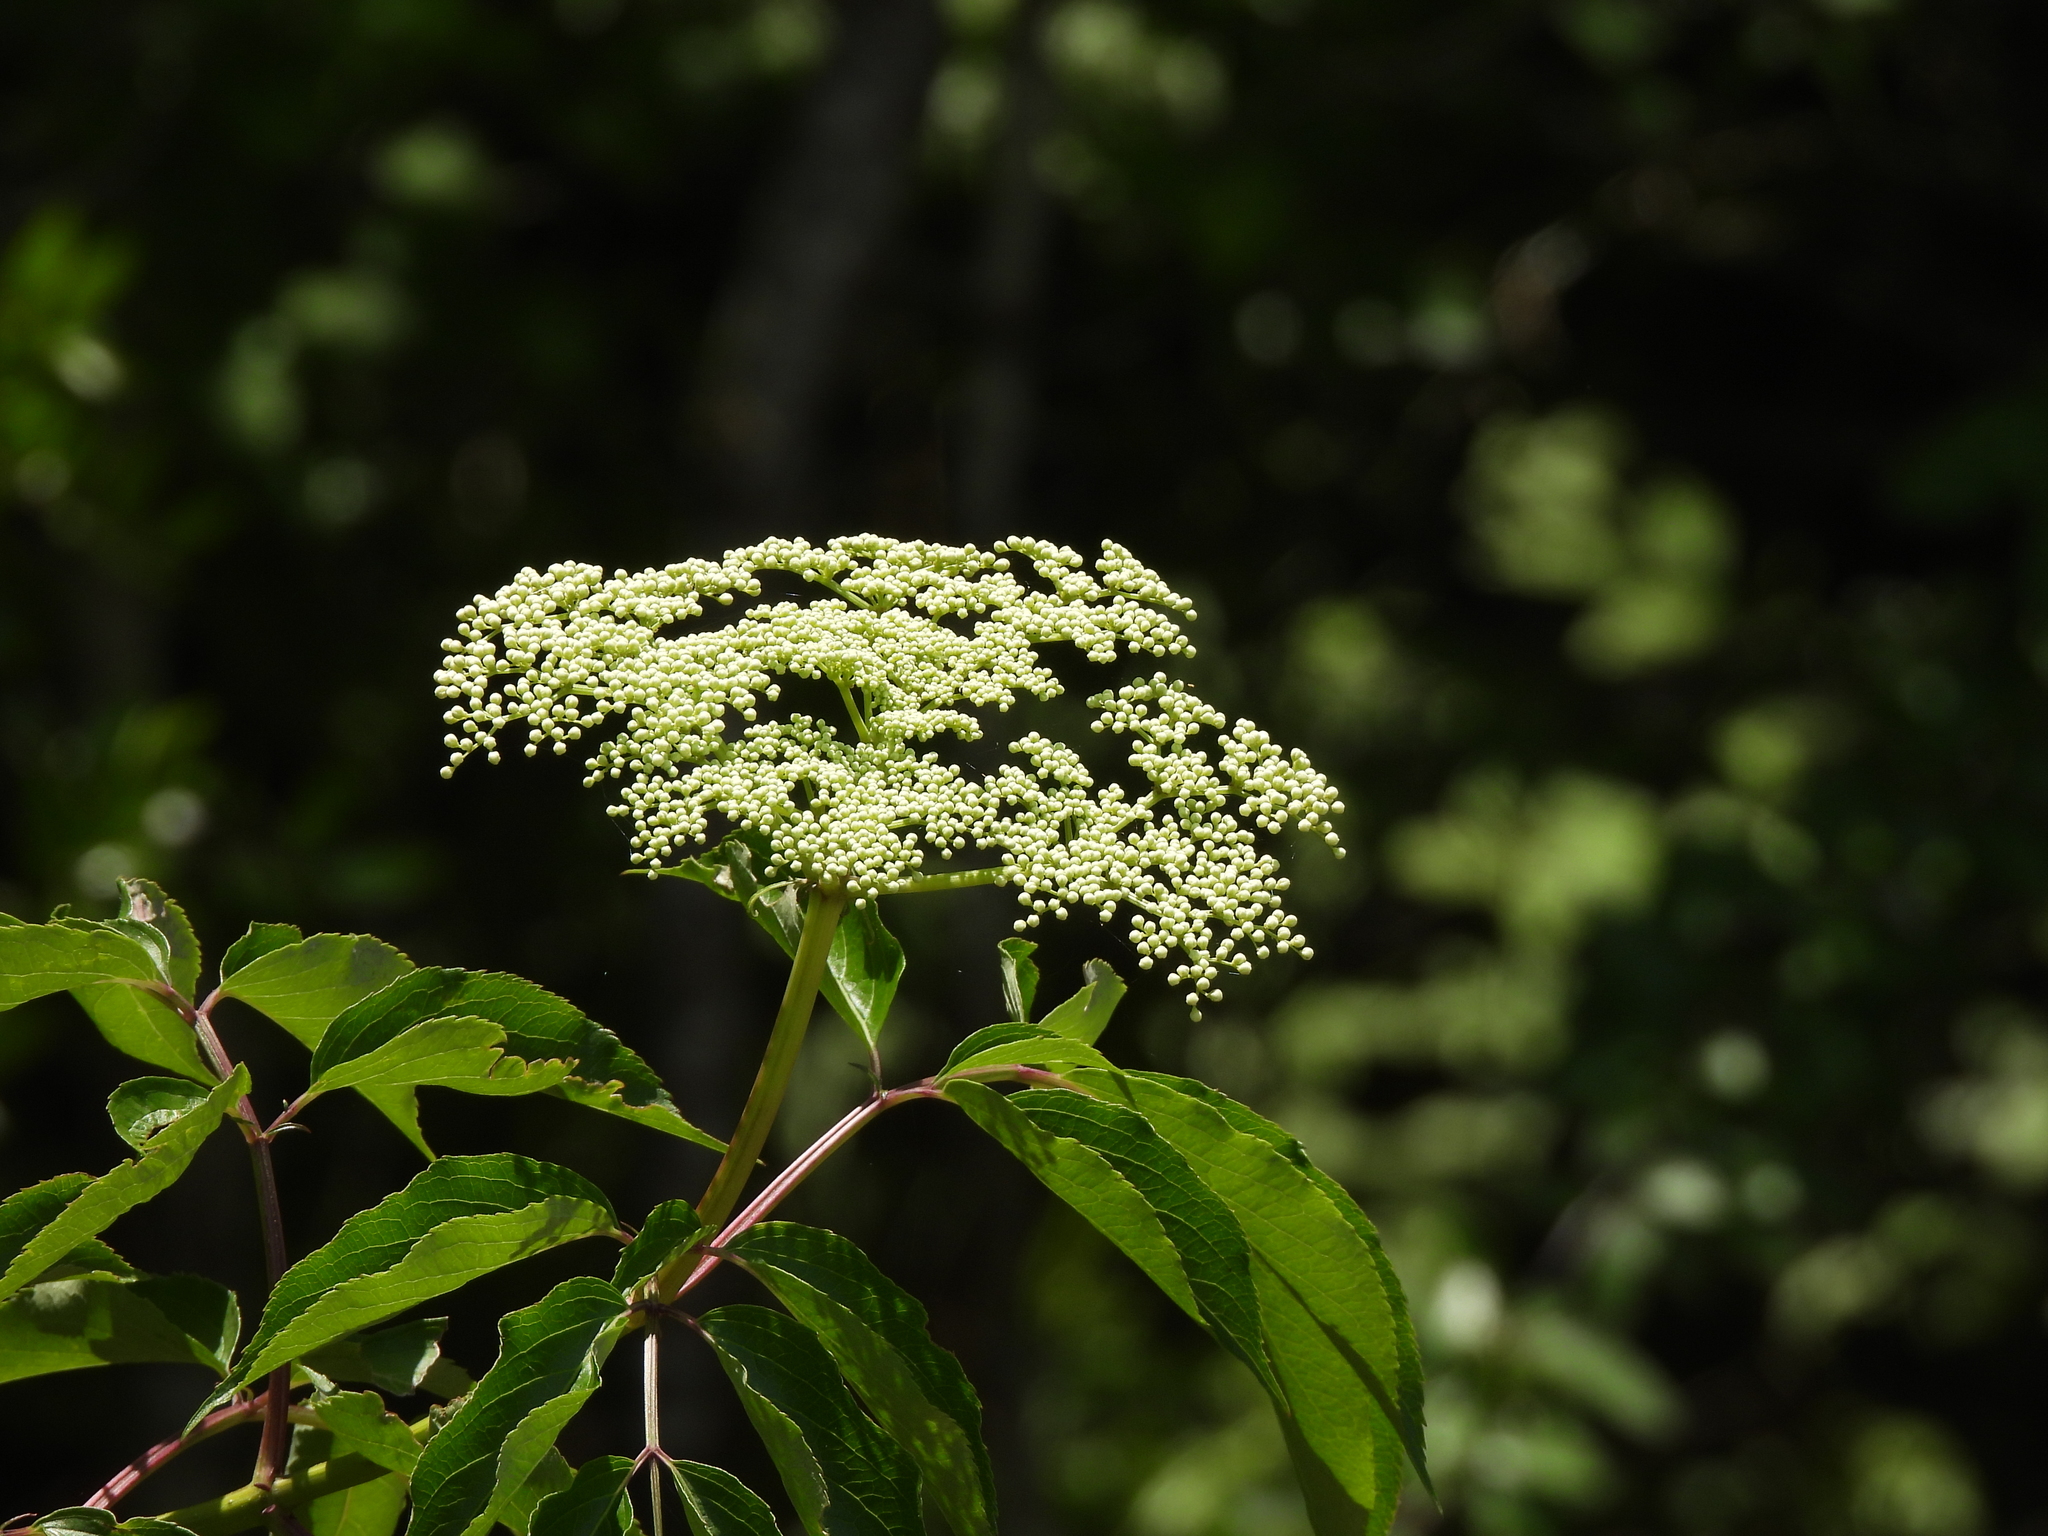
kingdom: Plantae
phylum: Tracheophyta
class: Magnoliopsida
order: Dipsacales
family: Viburnaceae
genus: Sambucus
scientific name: Sambucus canadensis
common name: American elder
